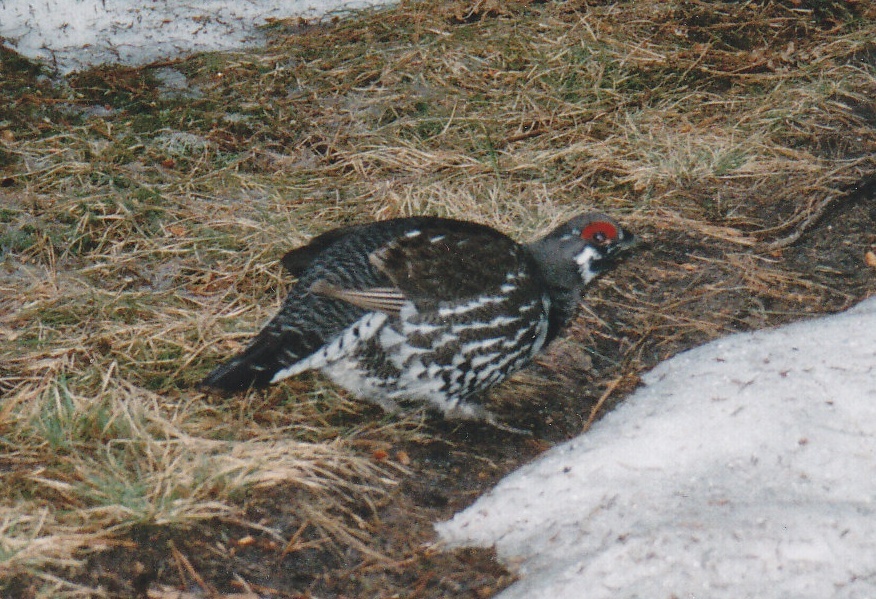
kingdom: Animalia
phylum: Chordata
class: Aves
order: Galliformes
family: Phasianidae
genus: Canachites
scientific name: Canachites canadensis
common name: Spruce grouse
